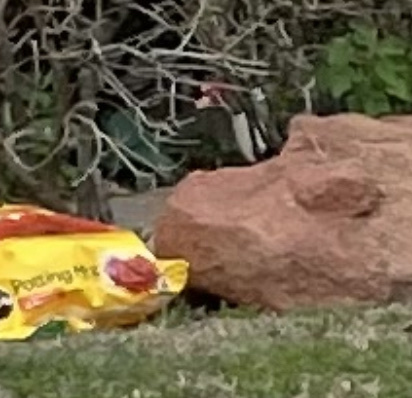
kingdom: Animalia
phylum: Chordata
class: Aves
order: Anseriformes
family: Anatidae
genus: Cairina
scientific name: Cairina moschata
